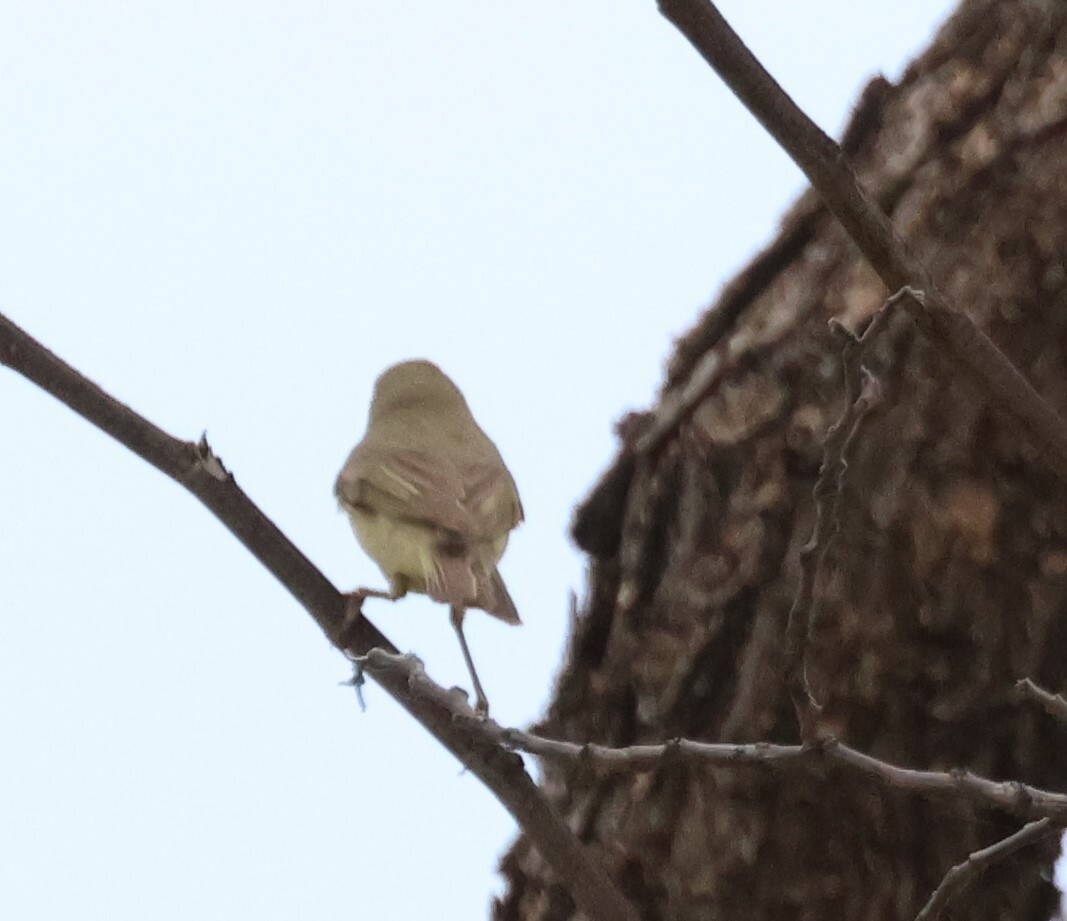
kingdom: Animalia
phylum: Chordata
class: Aves
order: Passeriformes
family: Phylloscopidae
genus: Phylloscopus
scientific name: Phylloscopus trochilus
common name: Willow warbler
